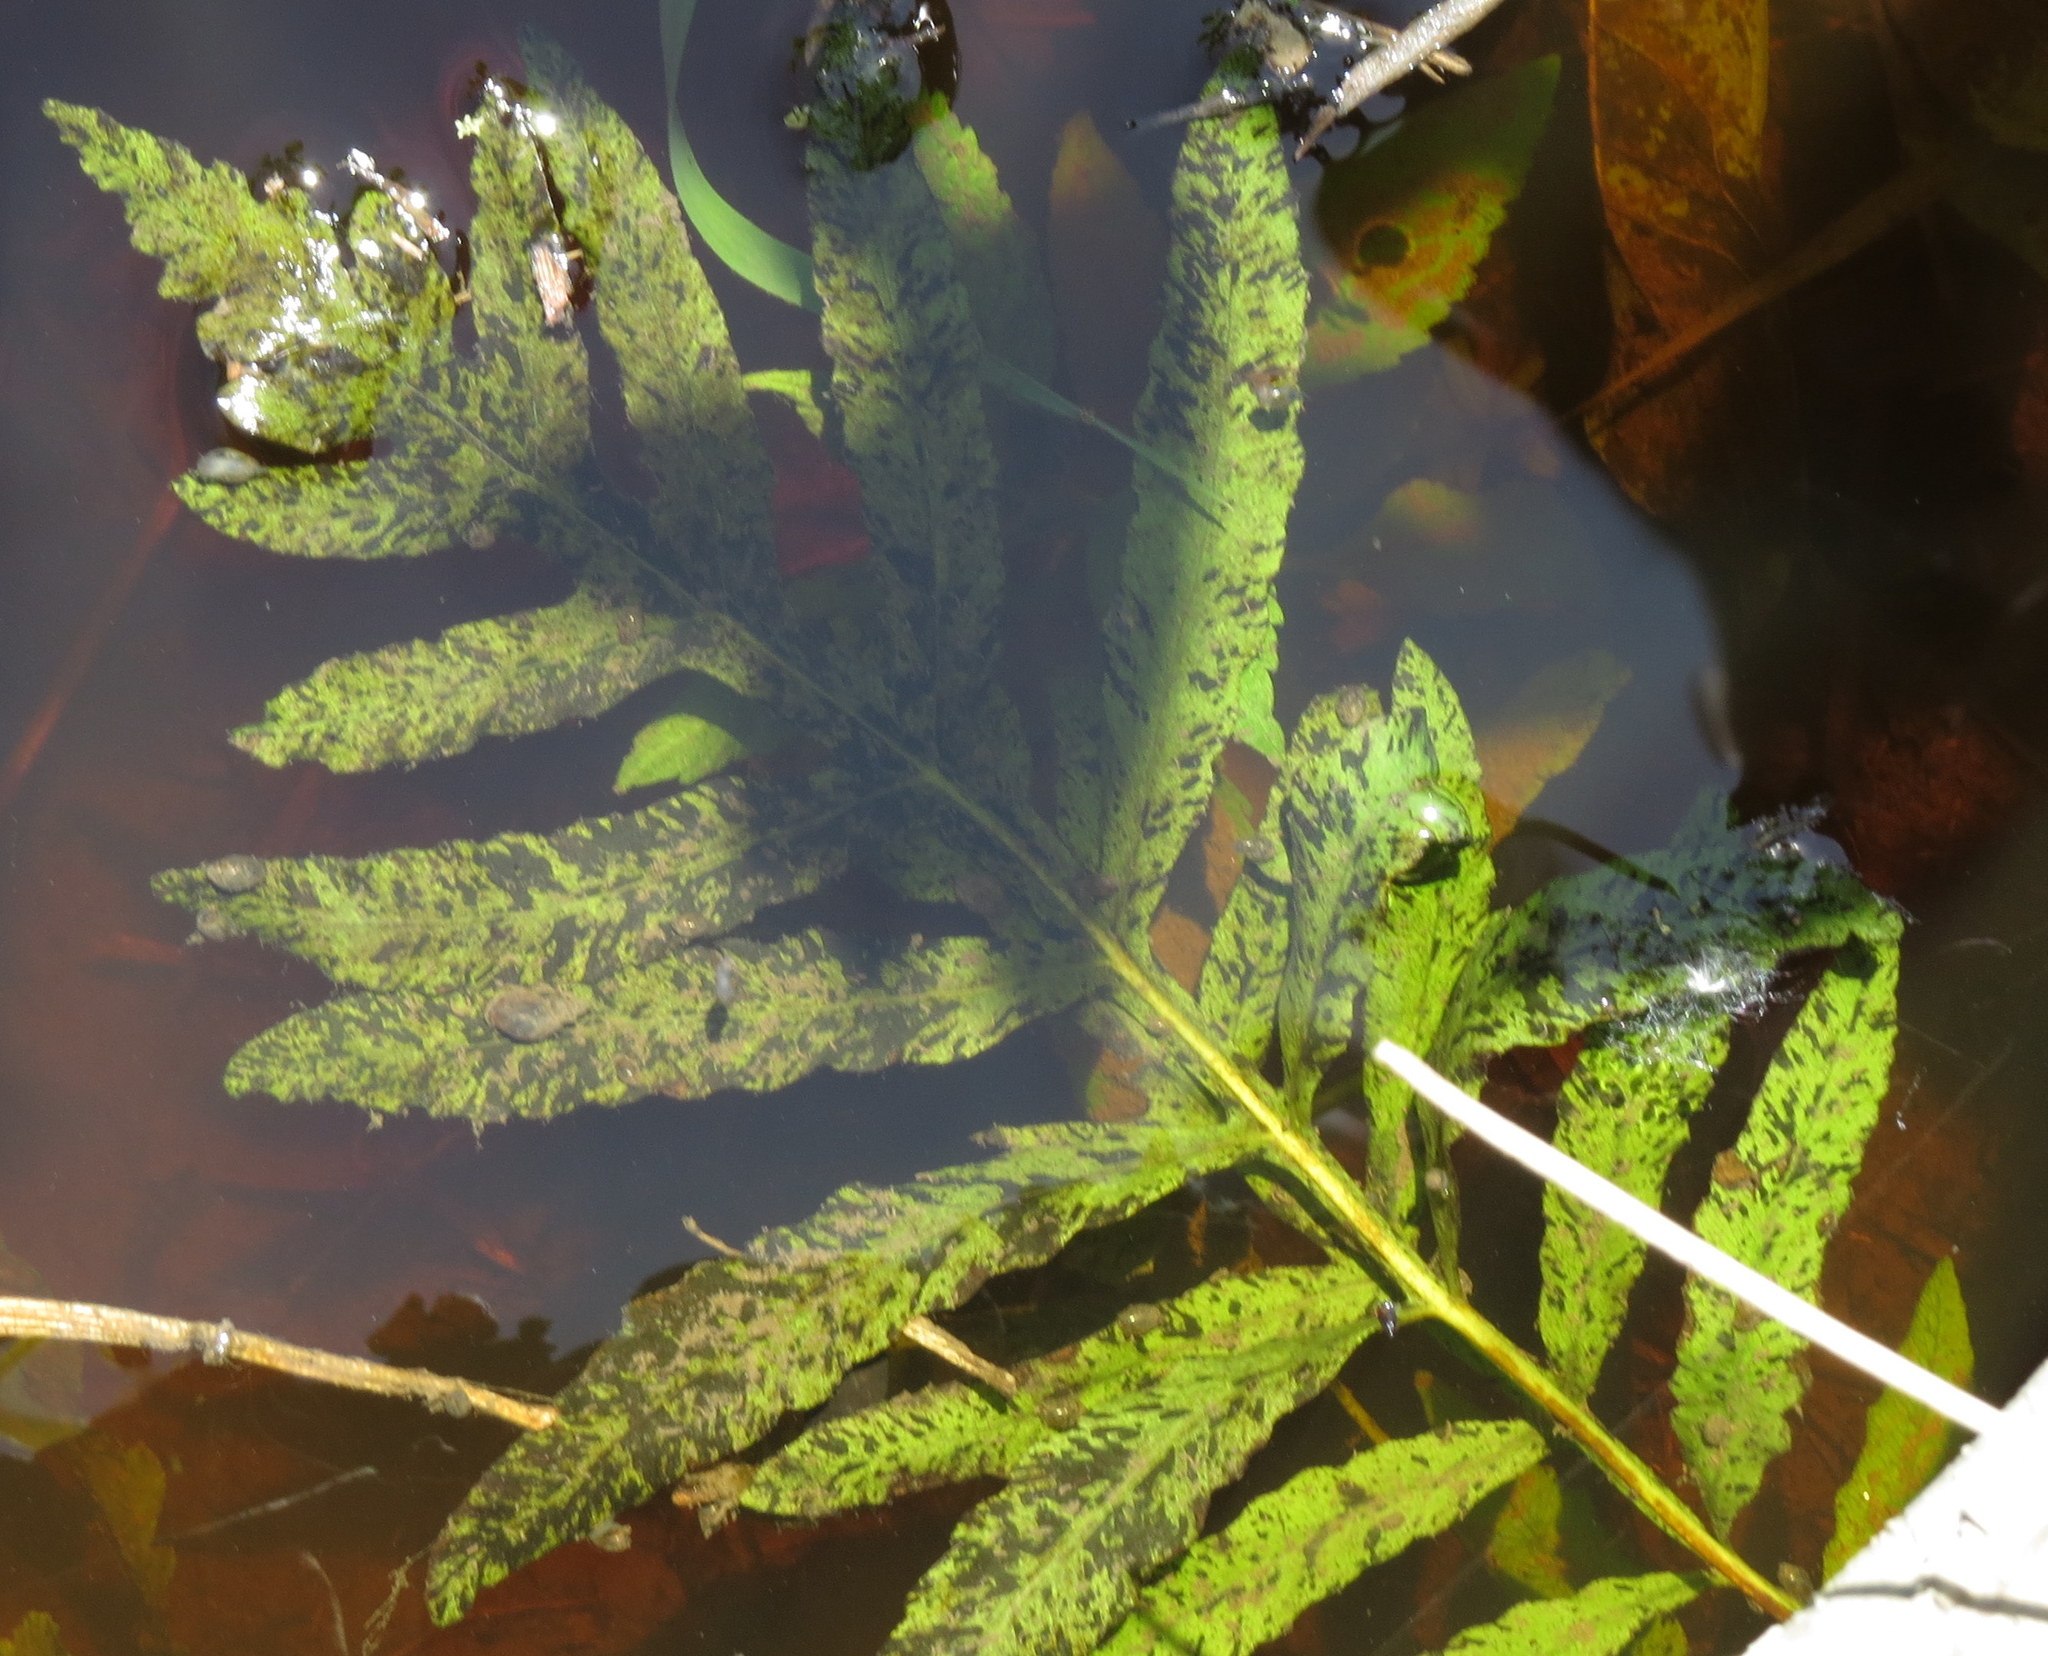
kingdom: Plantae
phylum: Tracheophyta
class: Polypodiopsida
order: Polypodiales
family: Onocleaceae
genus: Onoclea
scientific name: Onoclea sensibilis
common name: Sensitive fern
